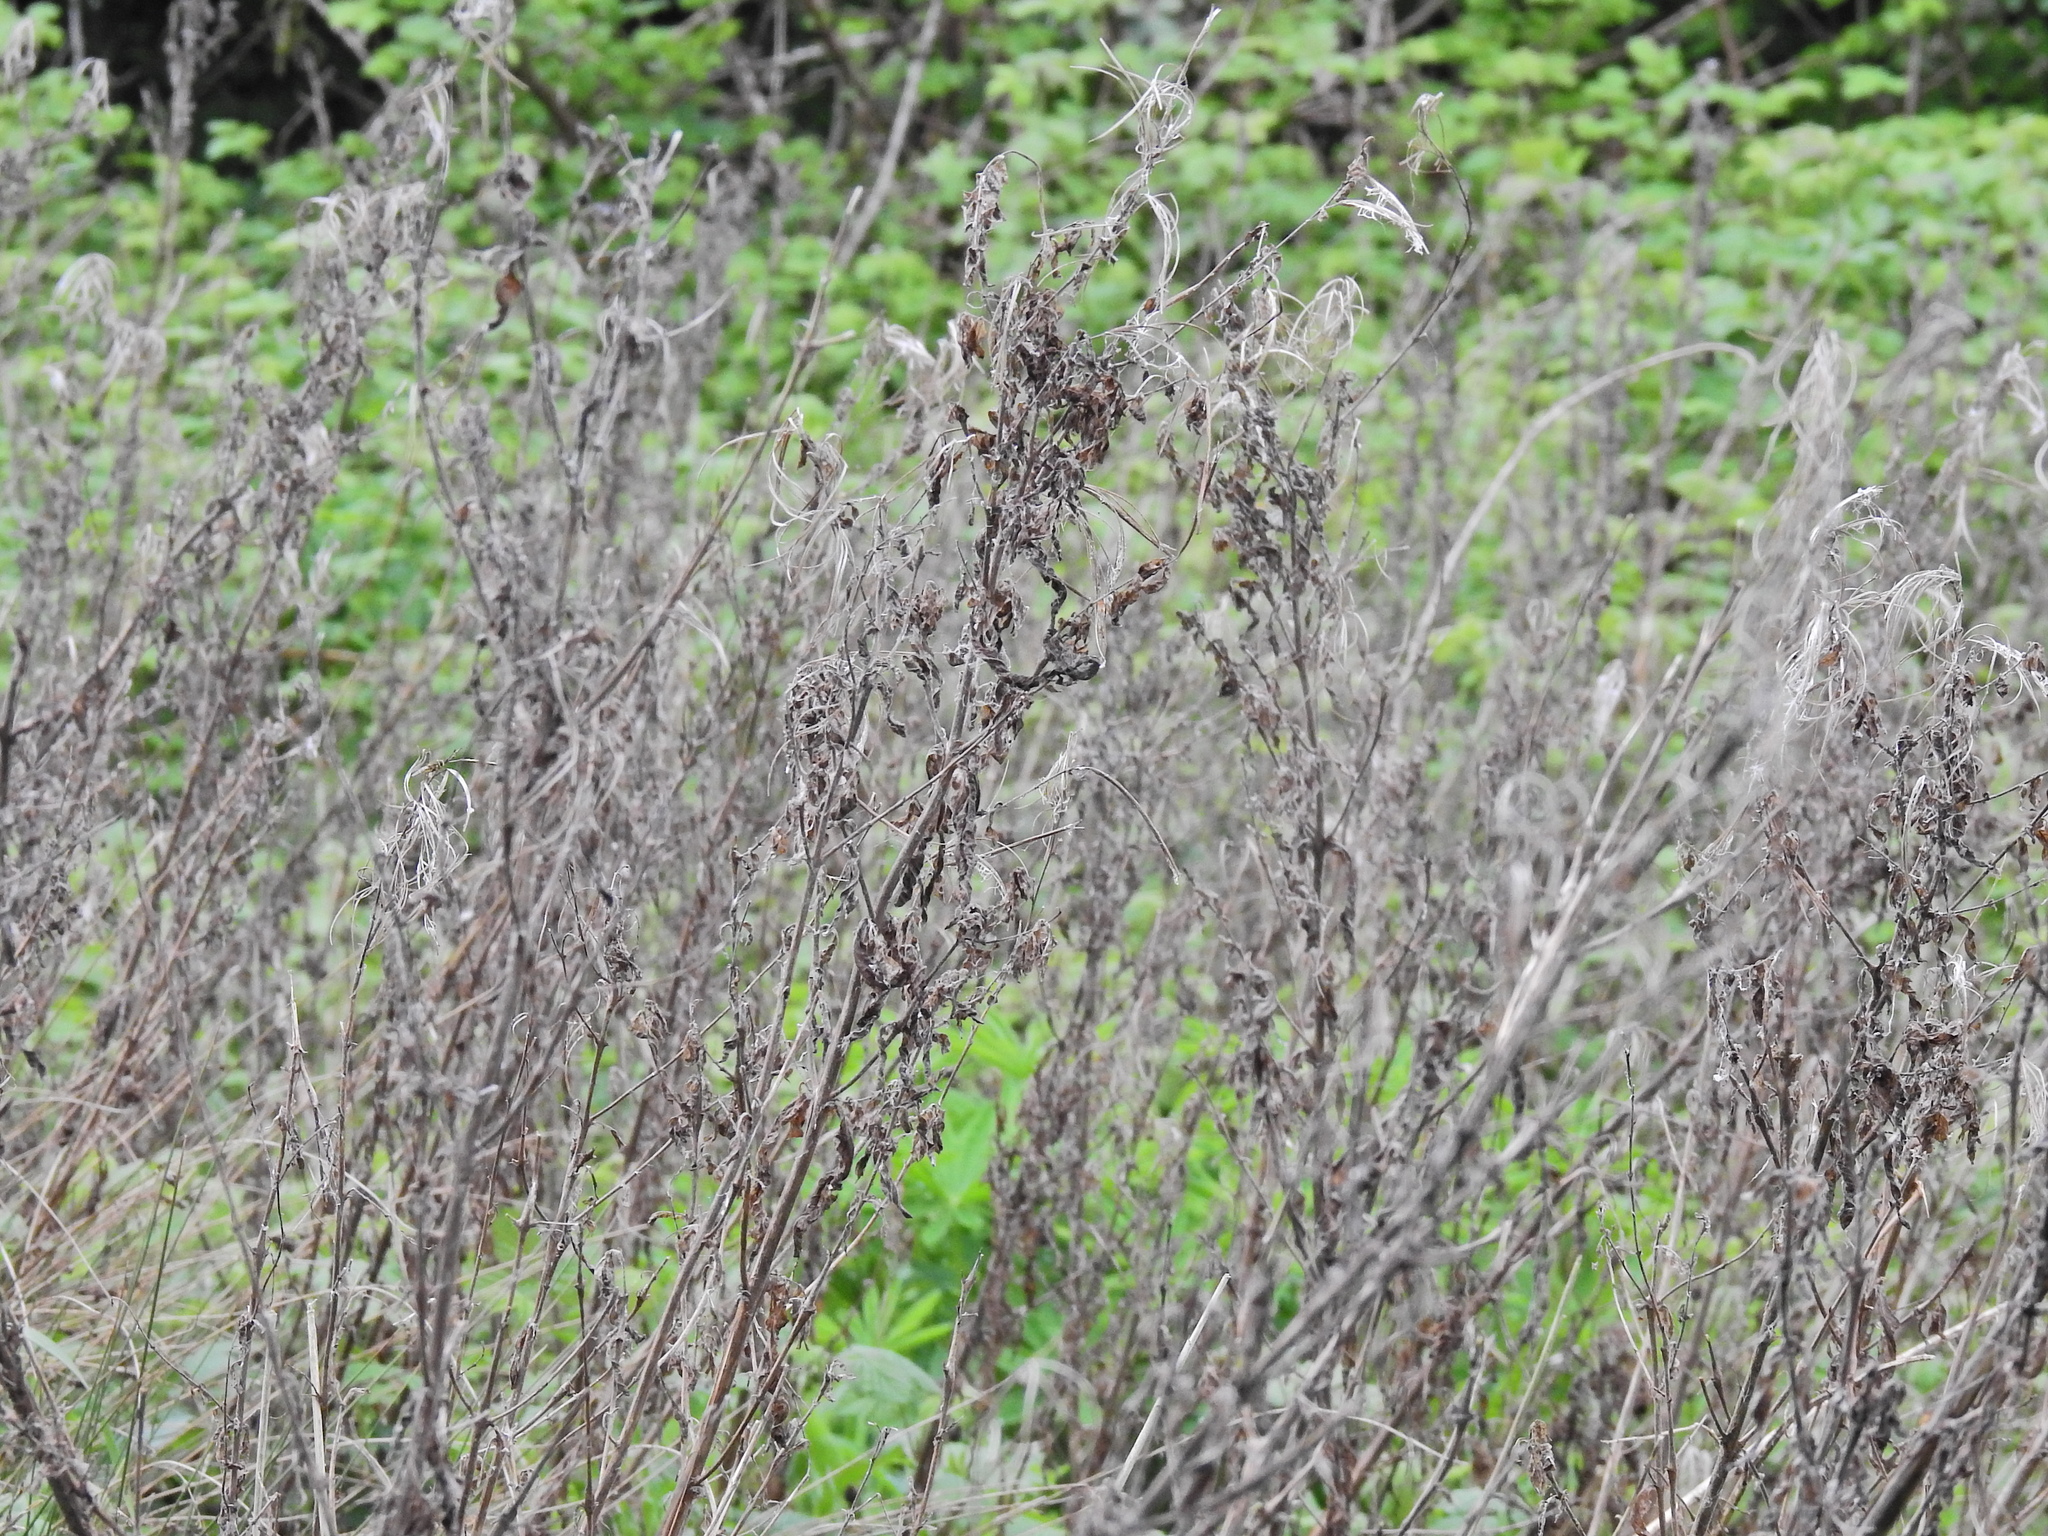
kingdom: Plantae
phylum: Tracheophyta
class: Magnoliopsida
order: Myrtales
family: Onagraceae
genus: Chamaenerion
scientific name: Chamaenerion angustifolium
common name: Fireweed
